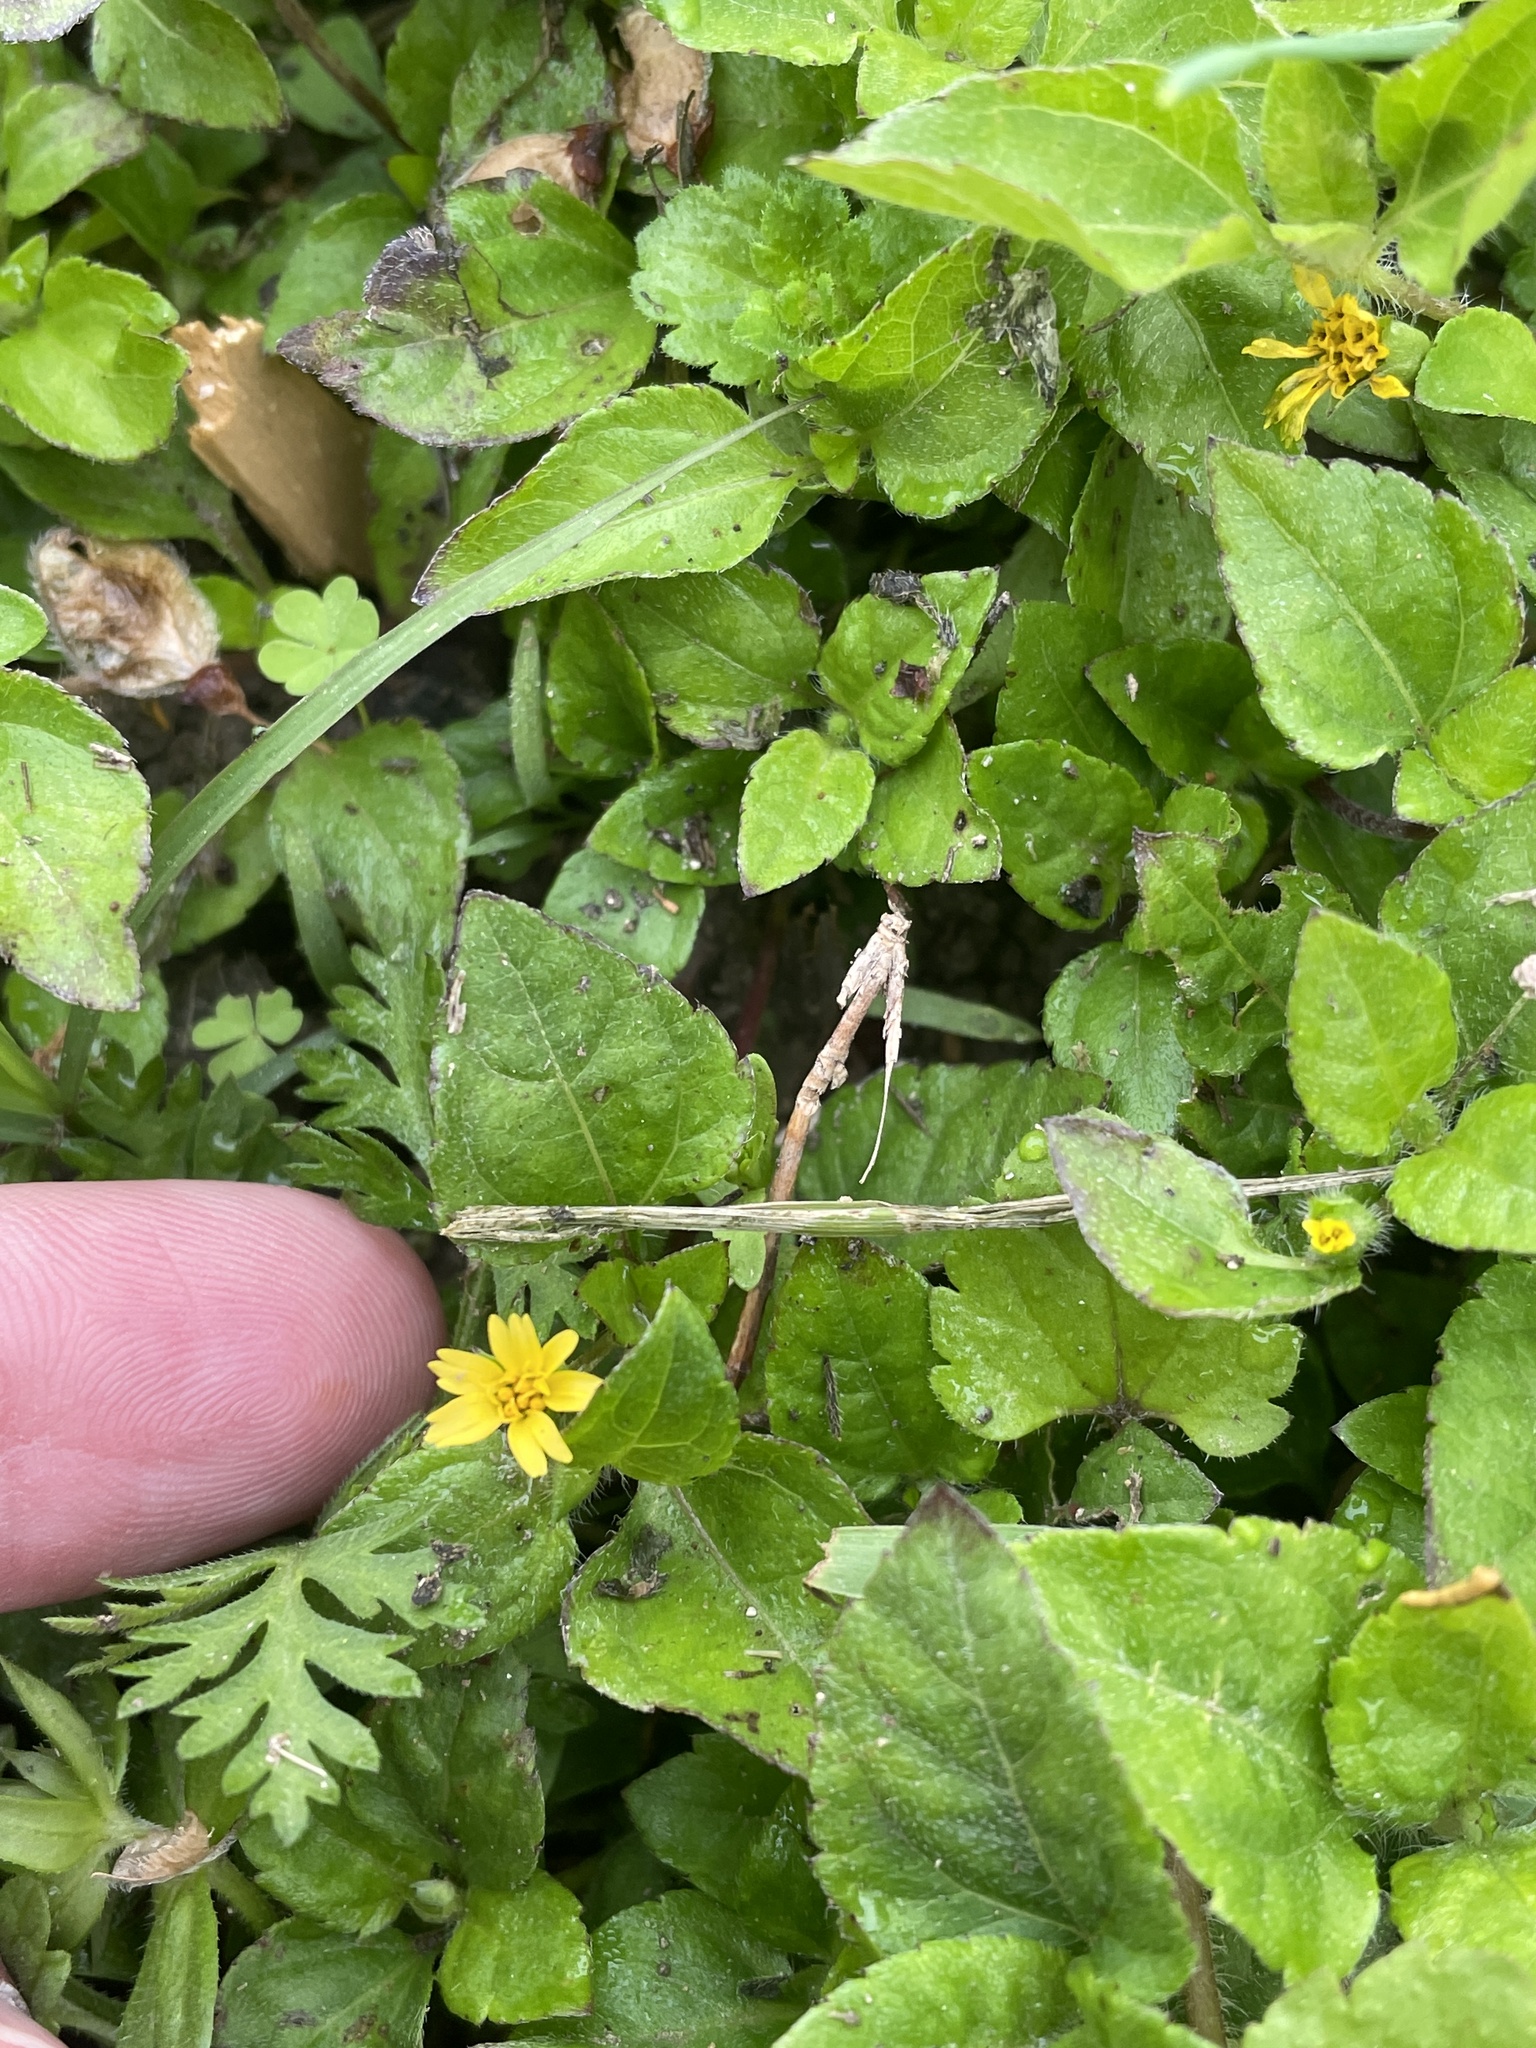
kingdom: Plantae
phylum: Tracheophyta
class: Magnoliopsida
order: Asterales
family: Asteraceae
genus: Calyptocarpus
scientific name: Calyptocarpus vialis
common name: Straggler daisy
